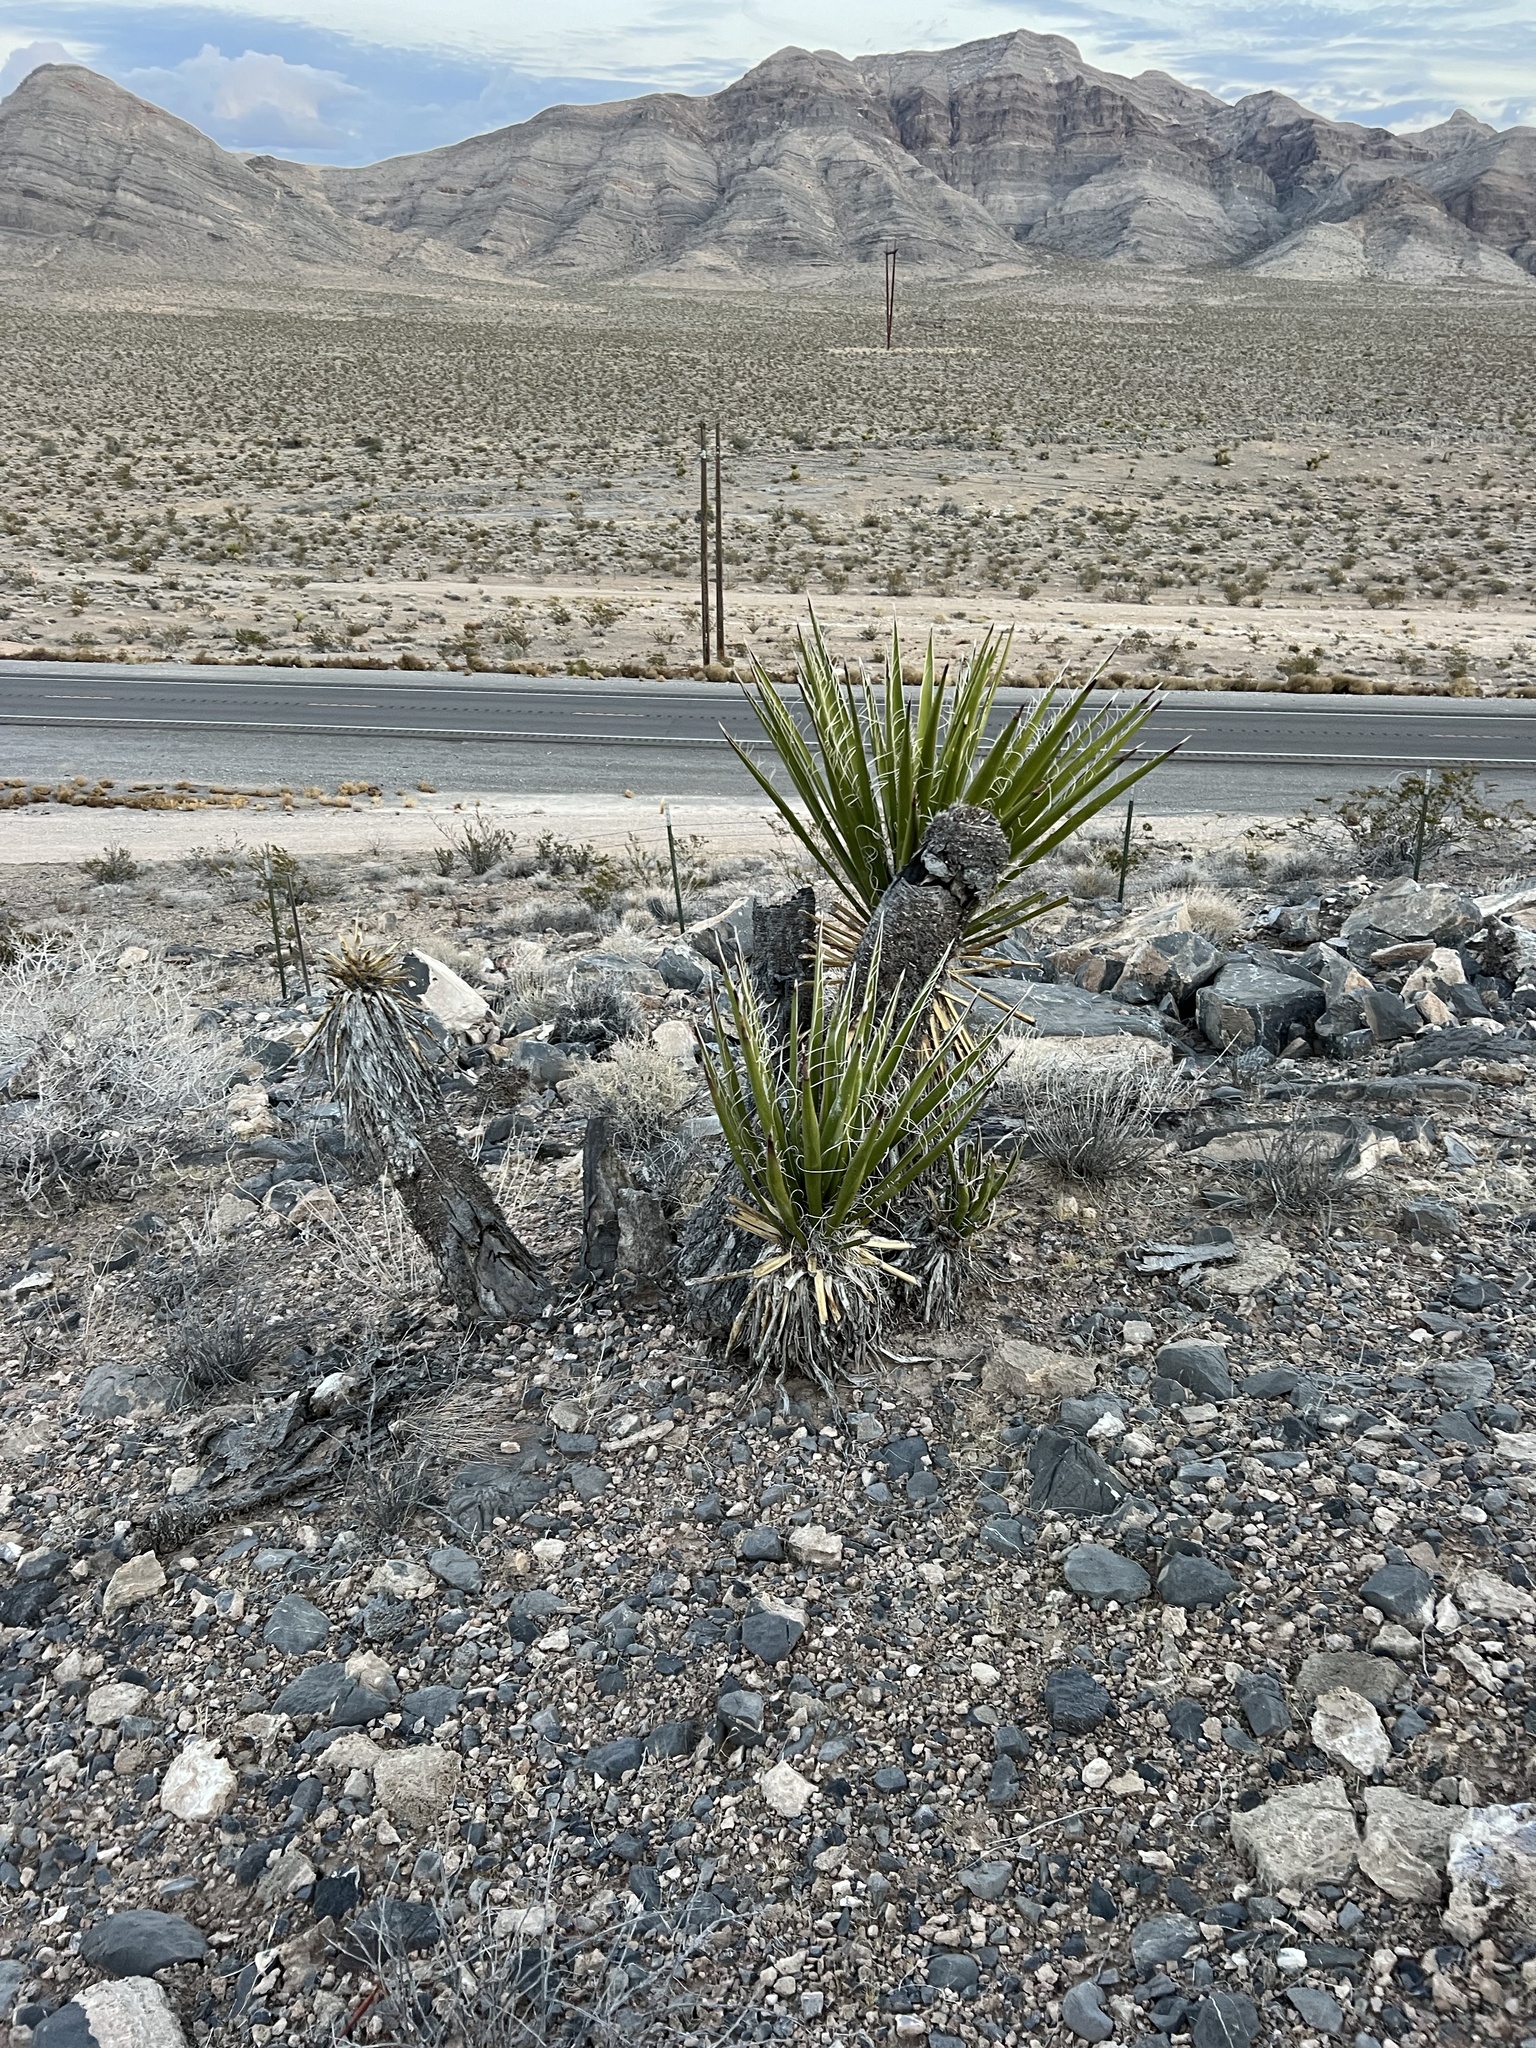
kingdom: Plantae
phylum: Tracheophyta
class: Liliopsida
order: Asparagales
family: Asparagaceae
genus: Yucca
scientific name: Yucca schidigera
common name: Mojave yucca
